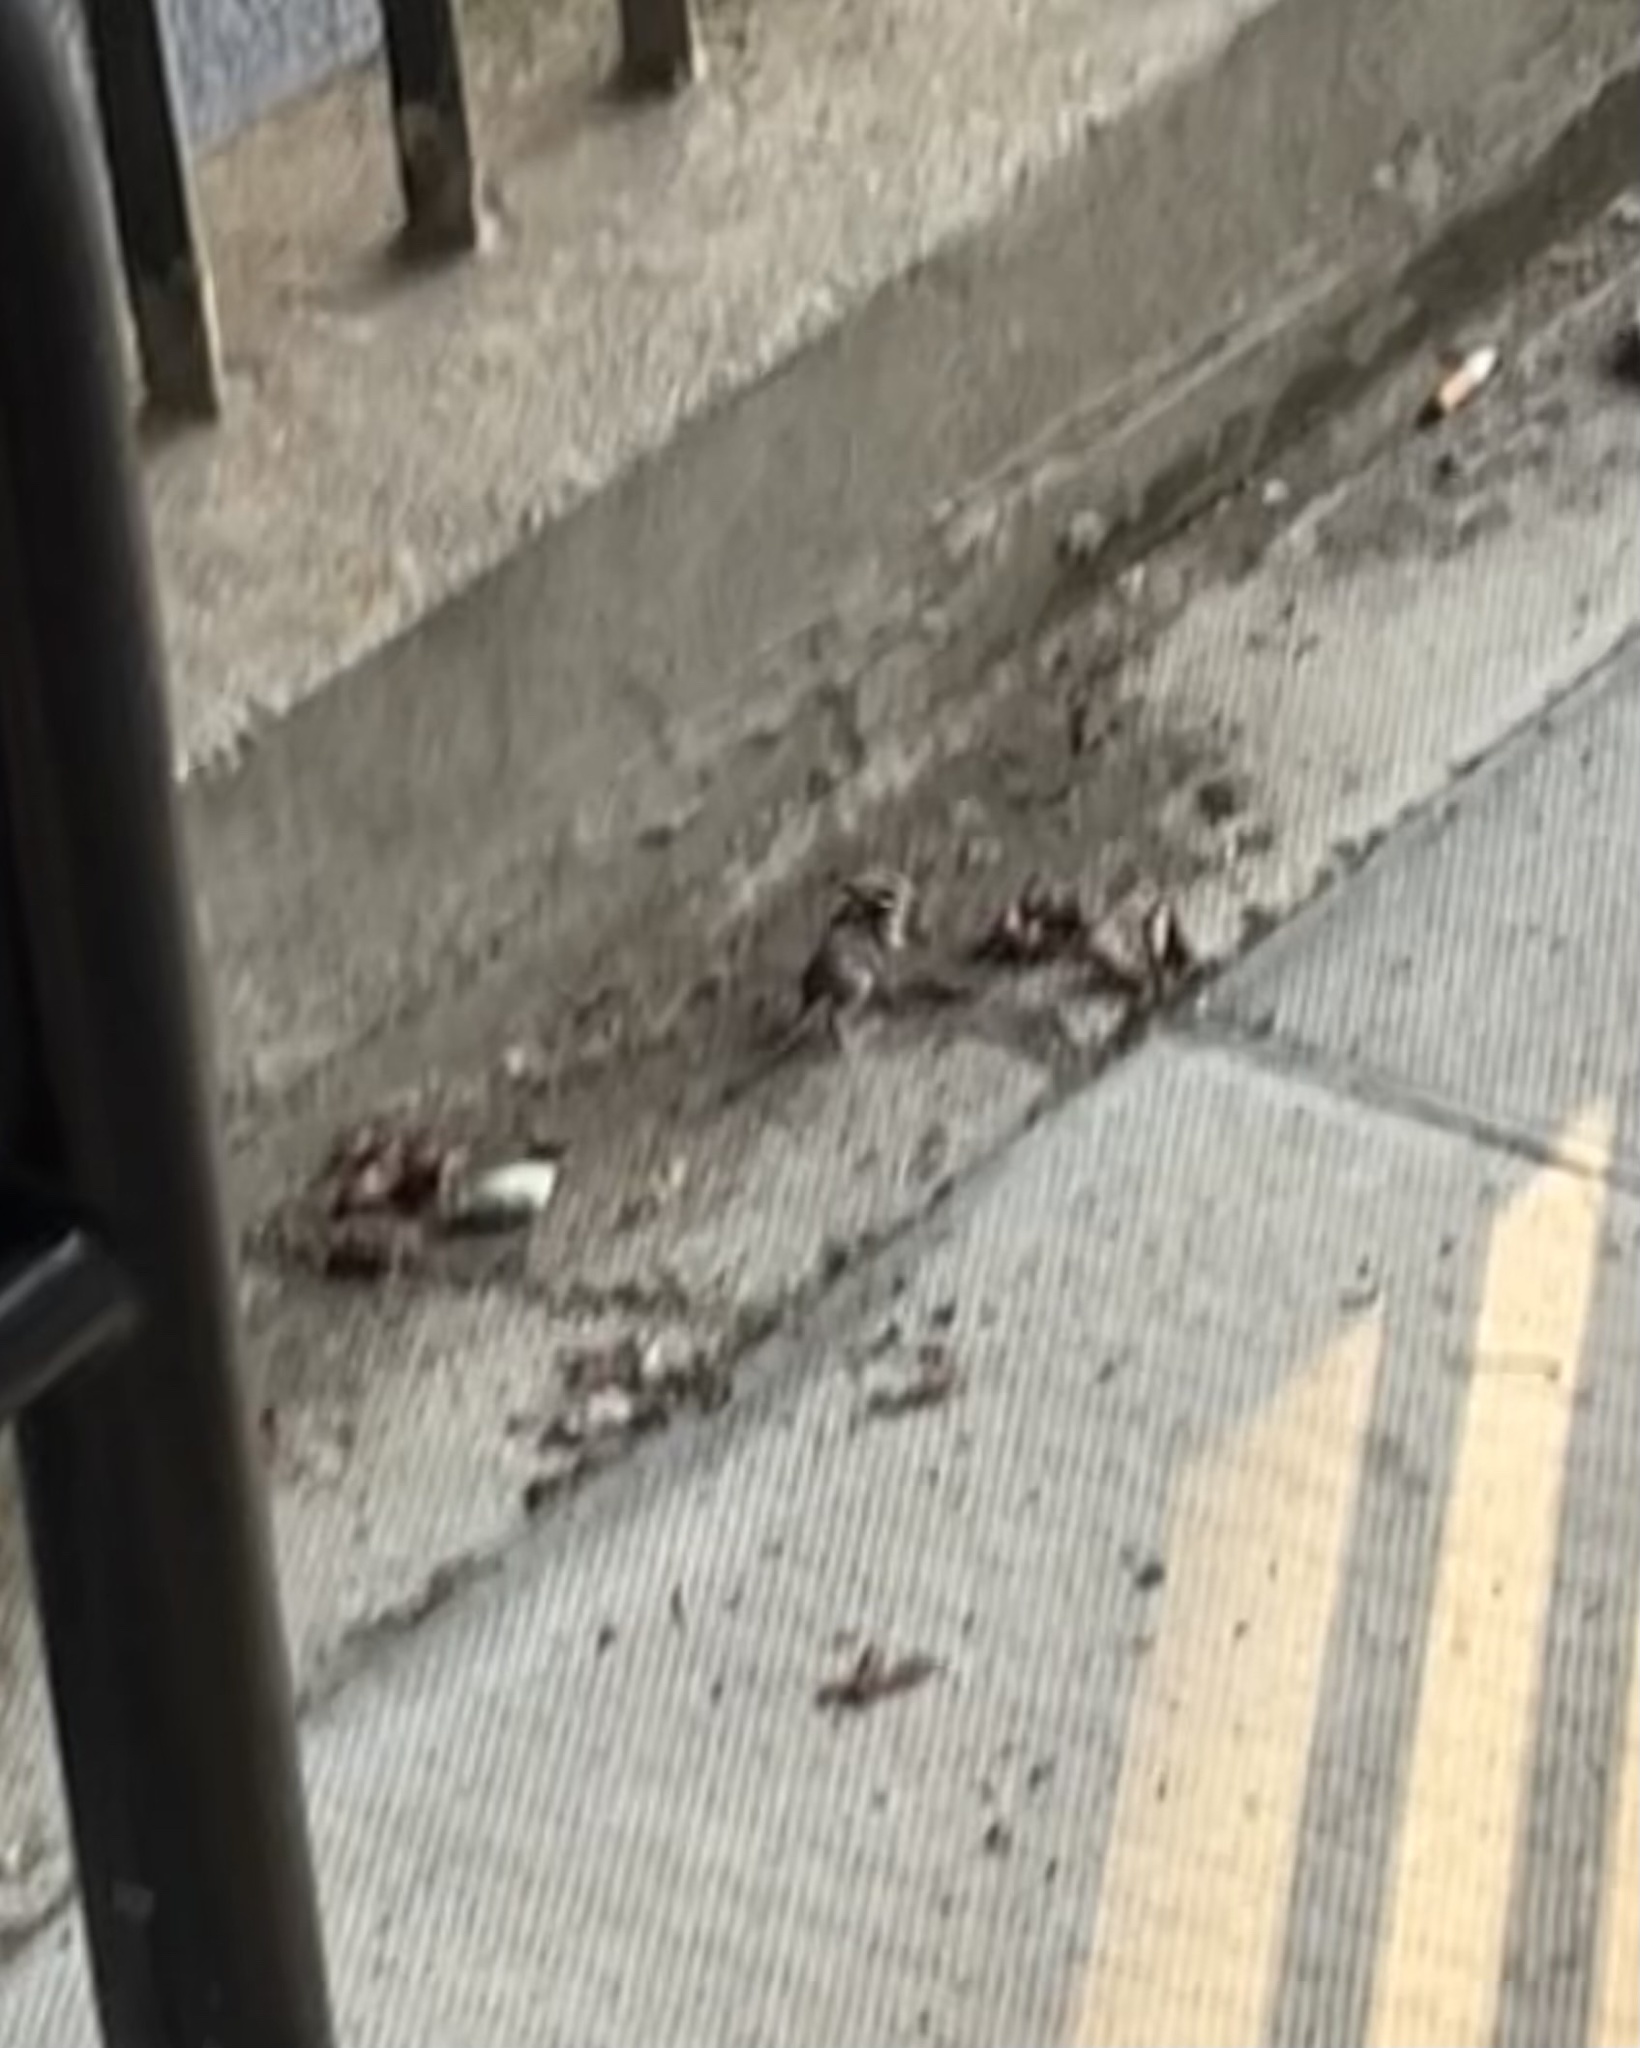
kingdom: Animalia
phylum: Chordata
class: Mammalia
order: Rodentia
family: Muridae
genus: Mus
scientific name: Mus musculus
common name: House mouse
